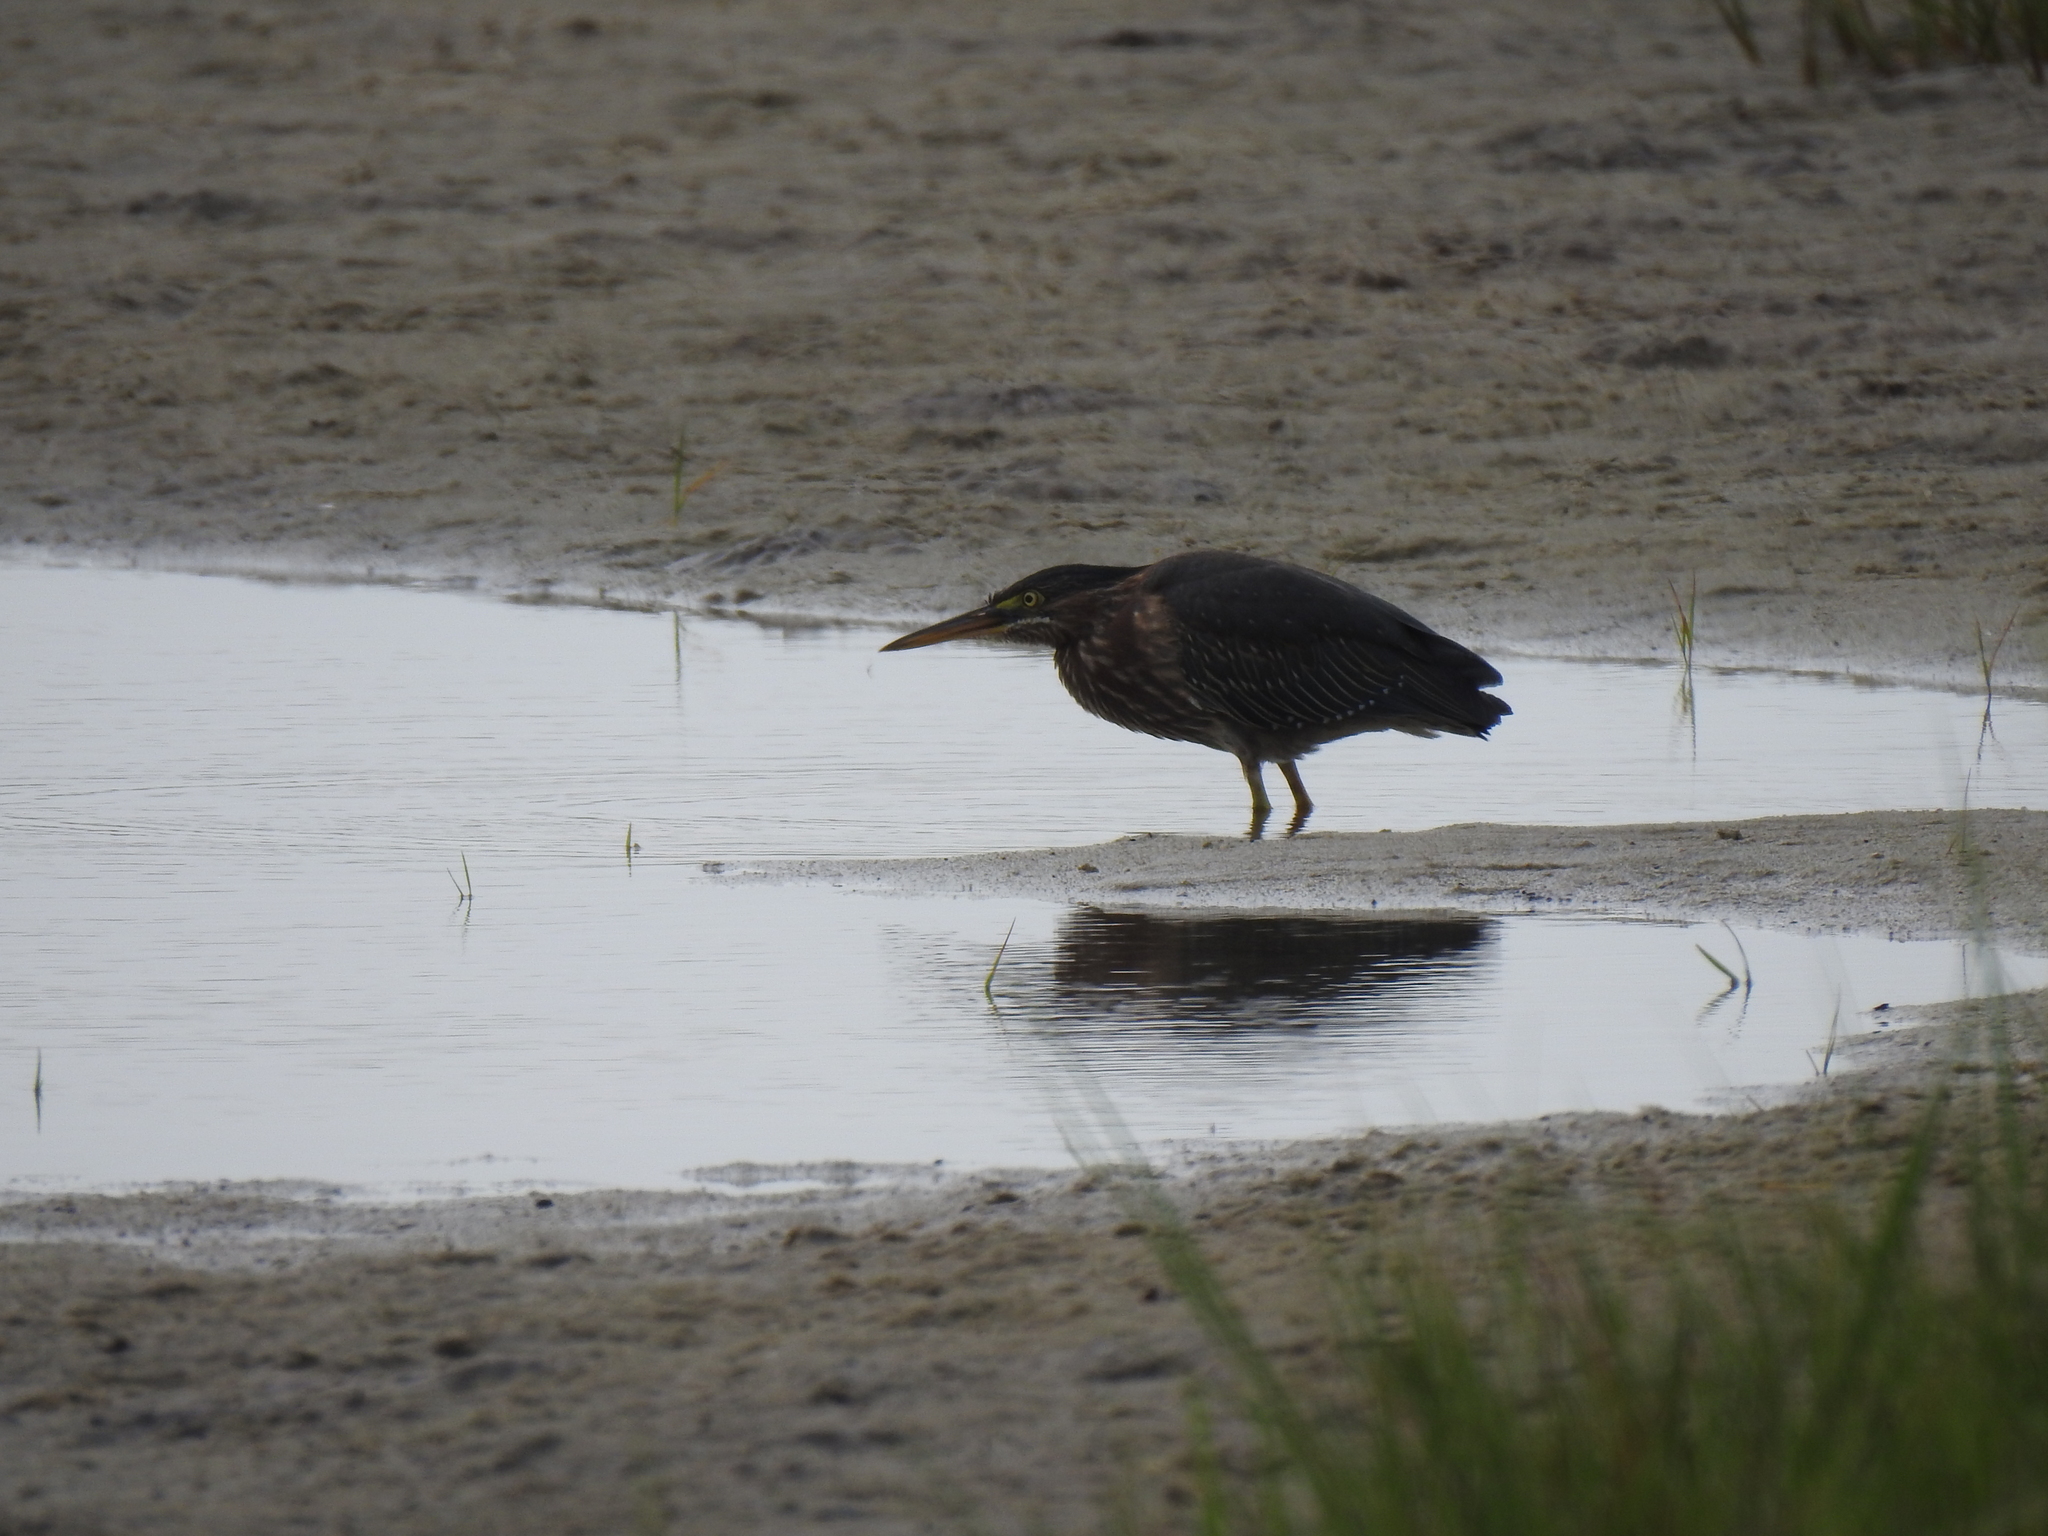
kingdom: Animalia
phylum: Chordata
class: Aves
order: Pelecaniformes
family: Ardeidae
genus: Butorides
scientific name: Butorides virescens
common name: Green heron
